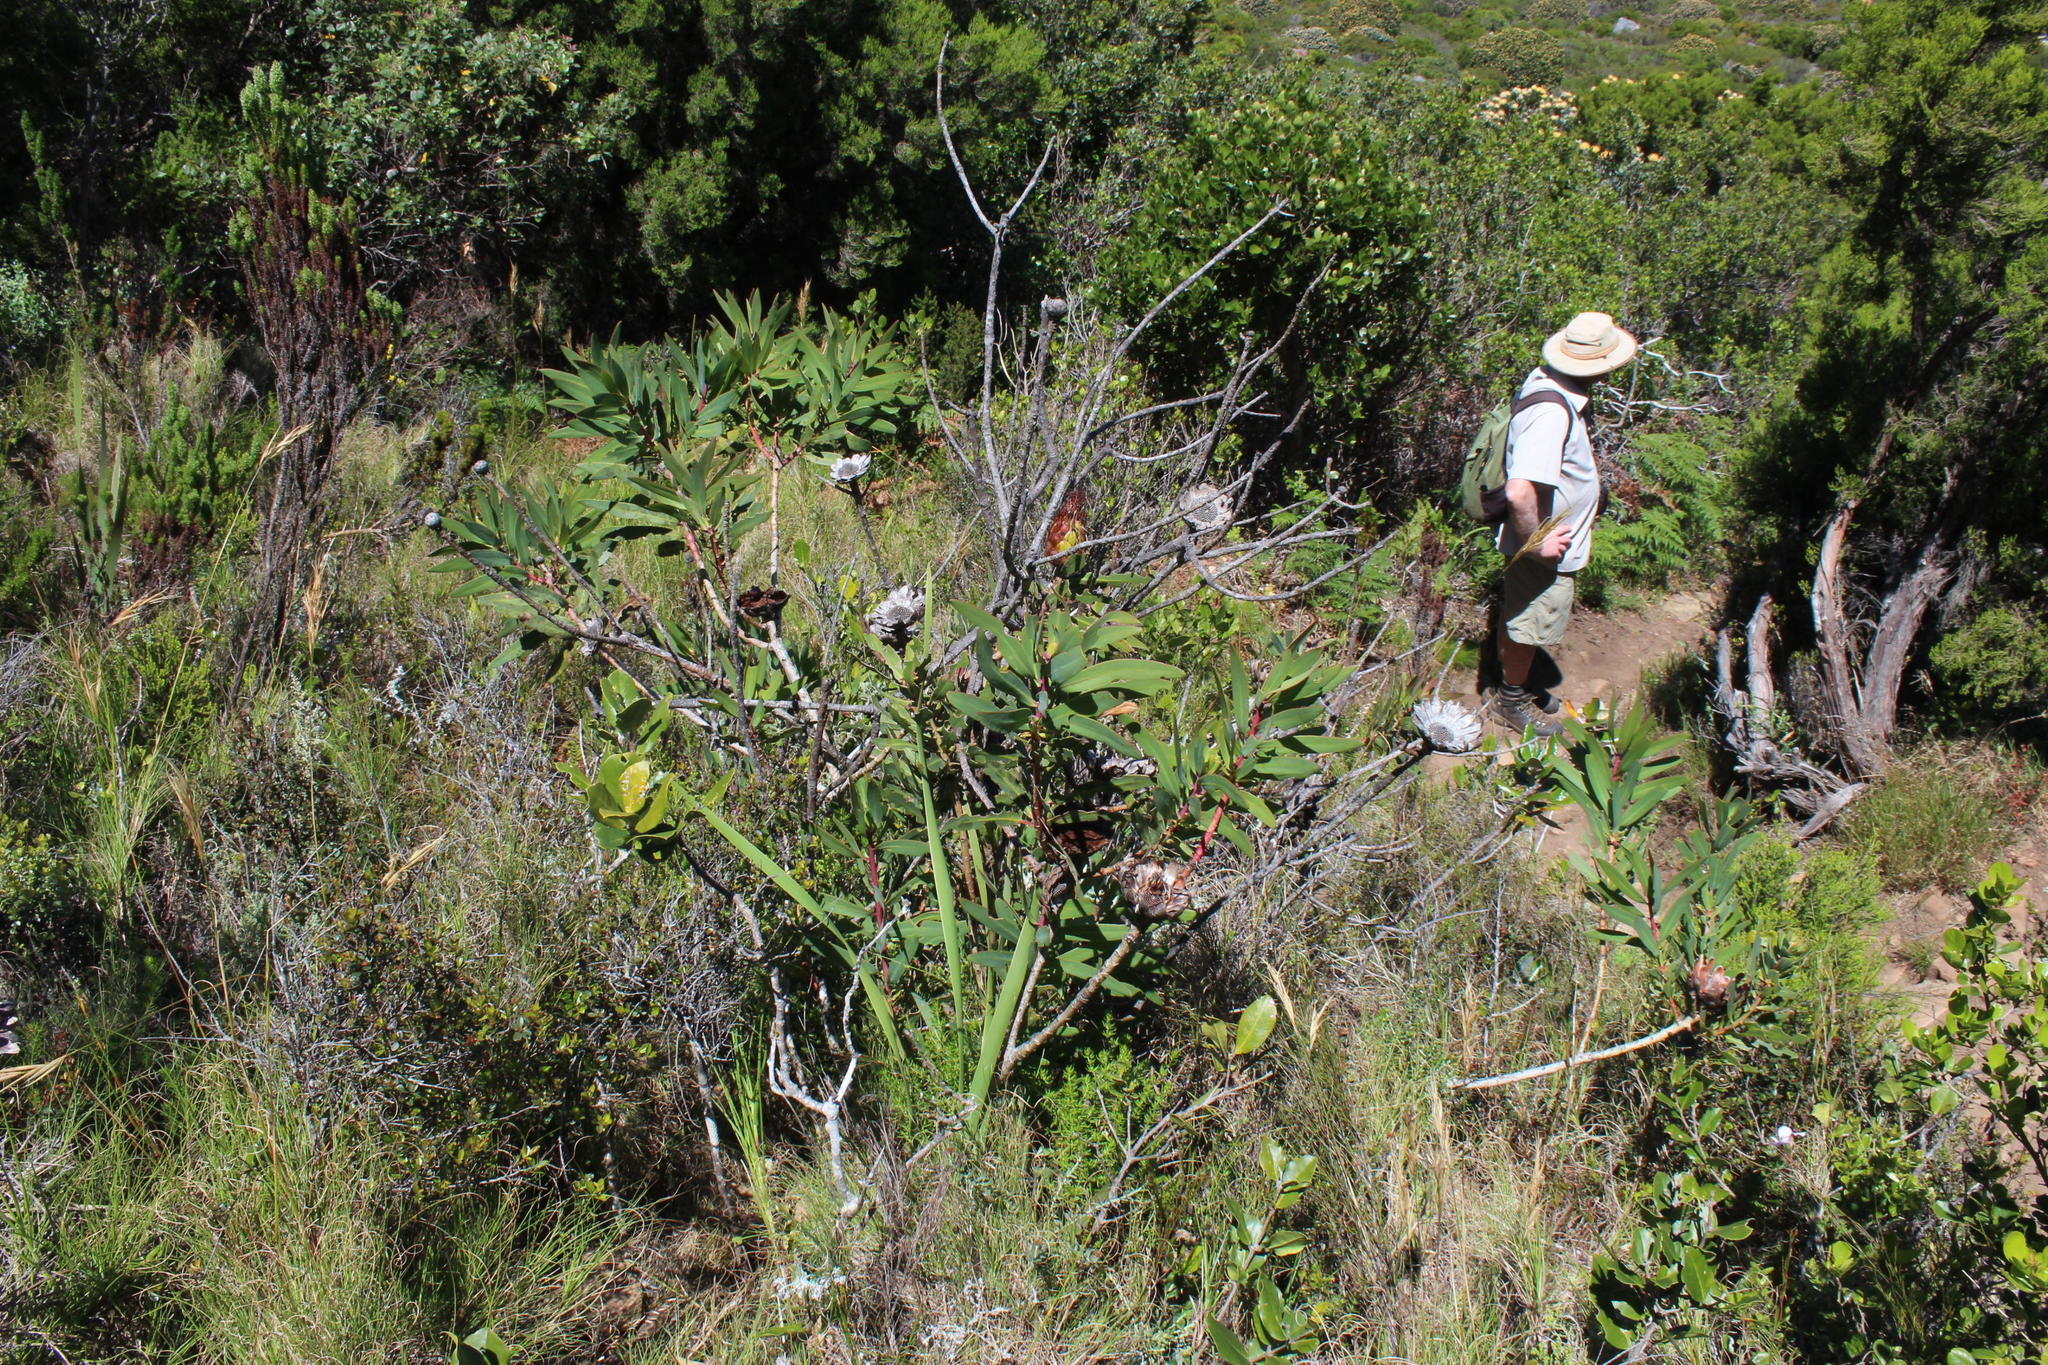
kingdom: Plantae
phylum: Tracheophyta
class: Magnoliopsida
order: Proteales
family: Proteaceae
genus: Protea
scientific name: Protea nitida
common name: Tree protea
